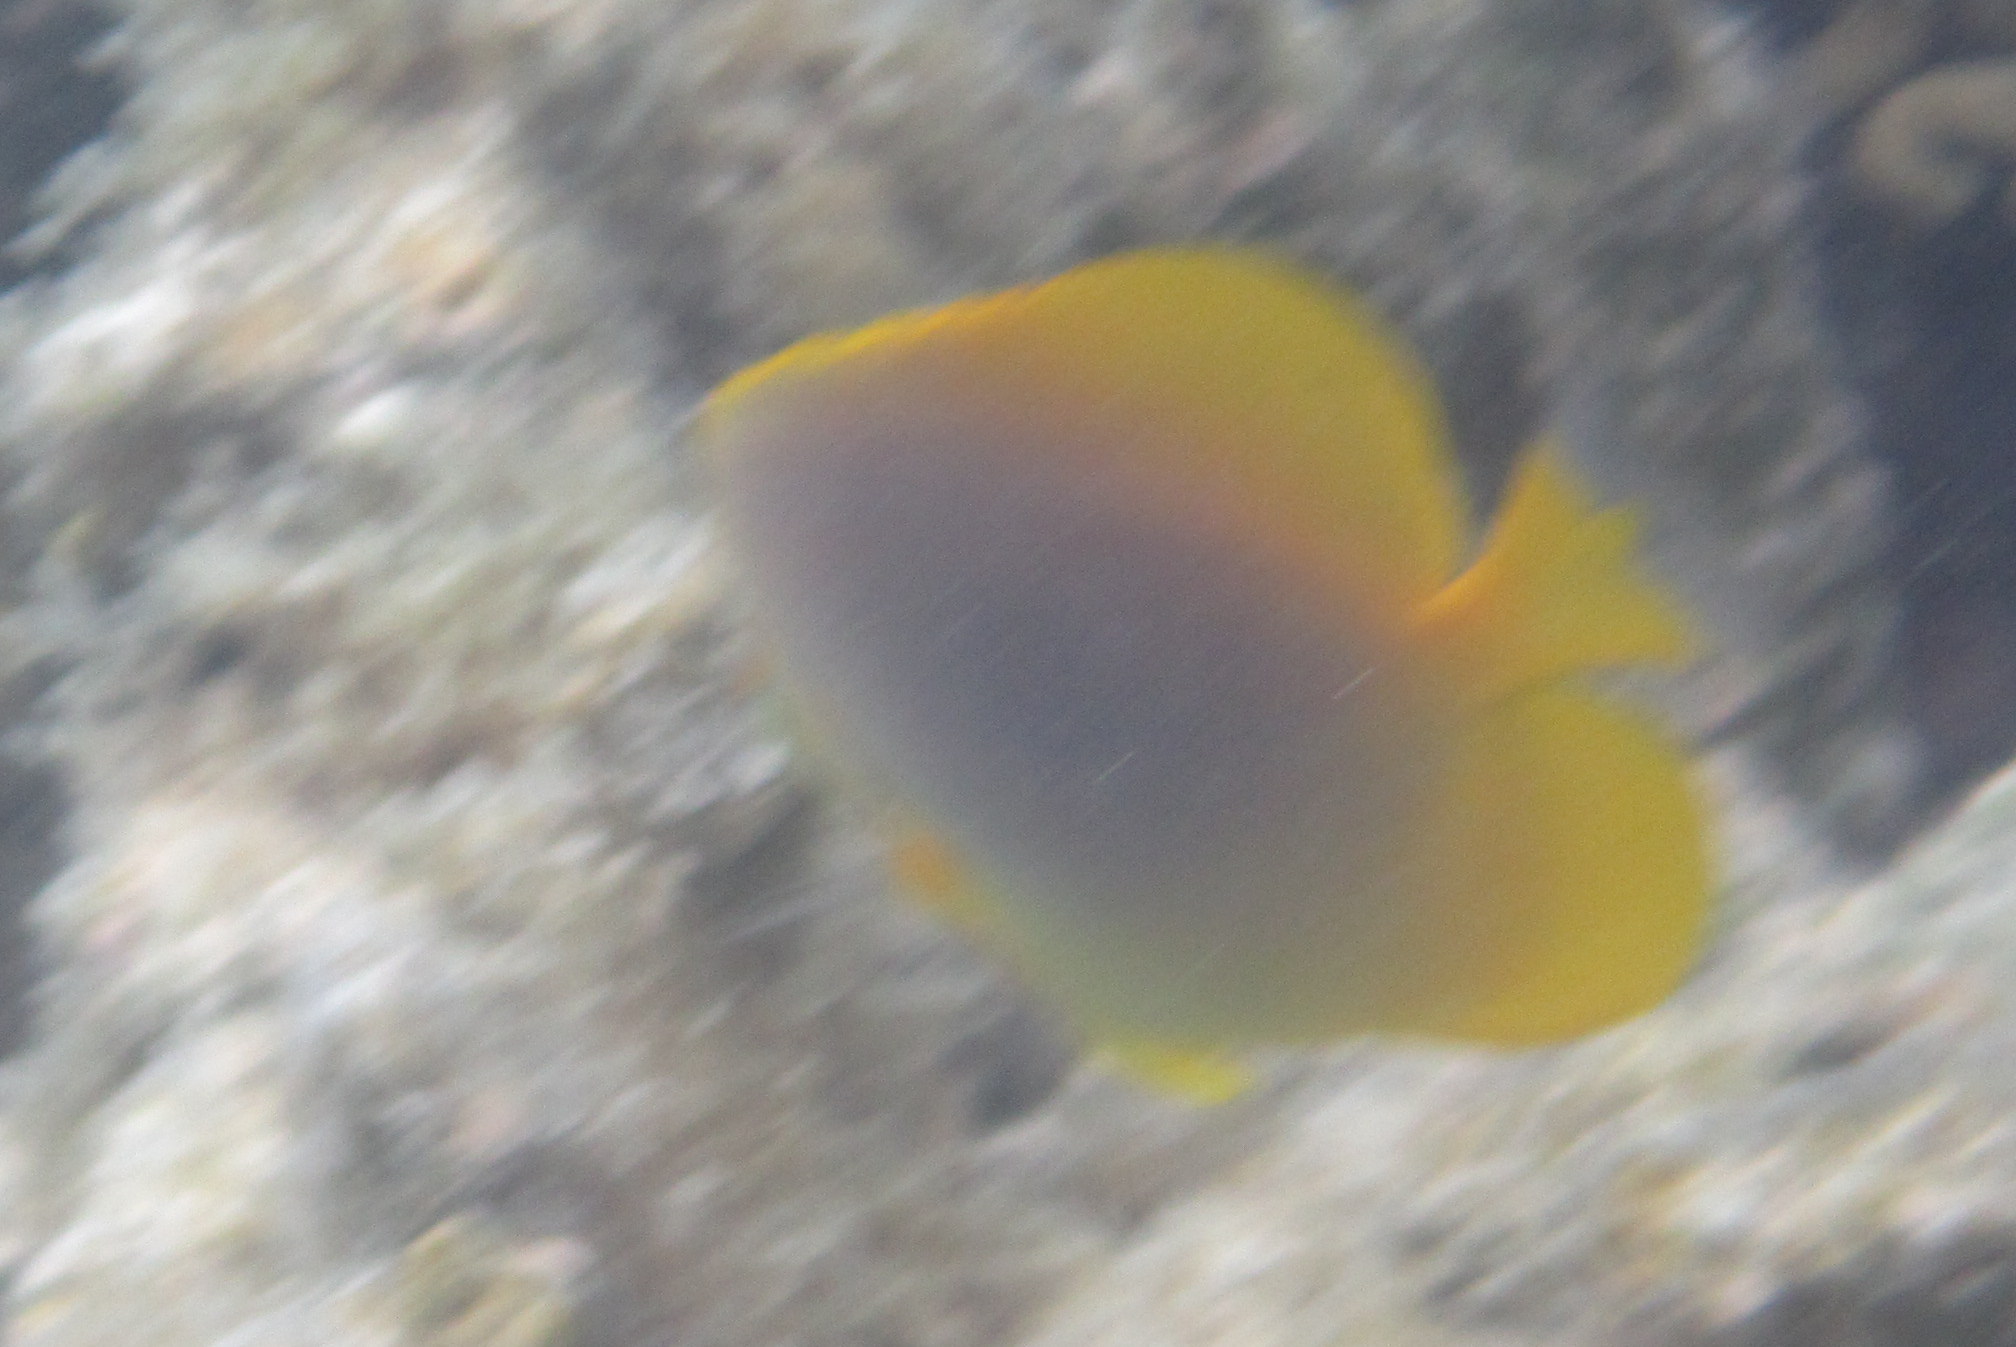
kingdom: Animalia
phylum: Chordata
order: Perciformes
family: Chaetodontidae
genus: Chaetodon
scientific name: Chaetodon aureofasciatus
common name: Golden butterflyfish
